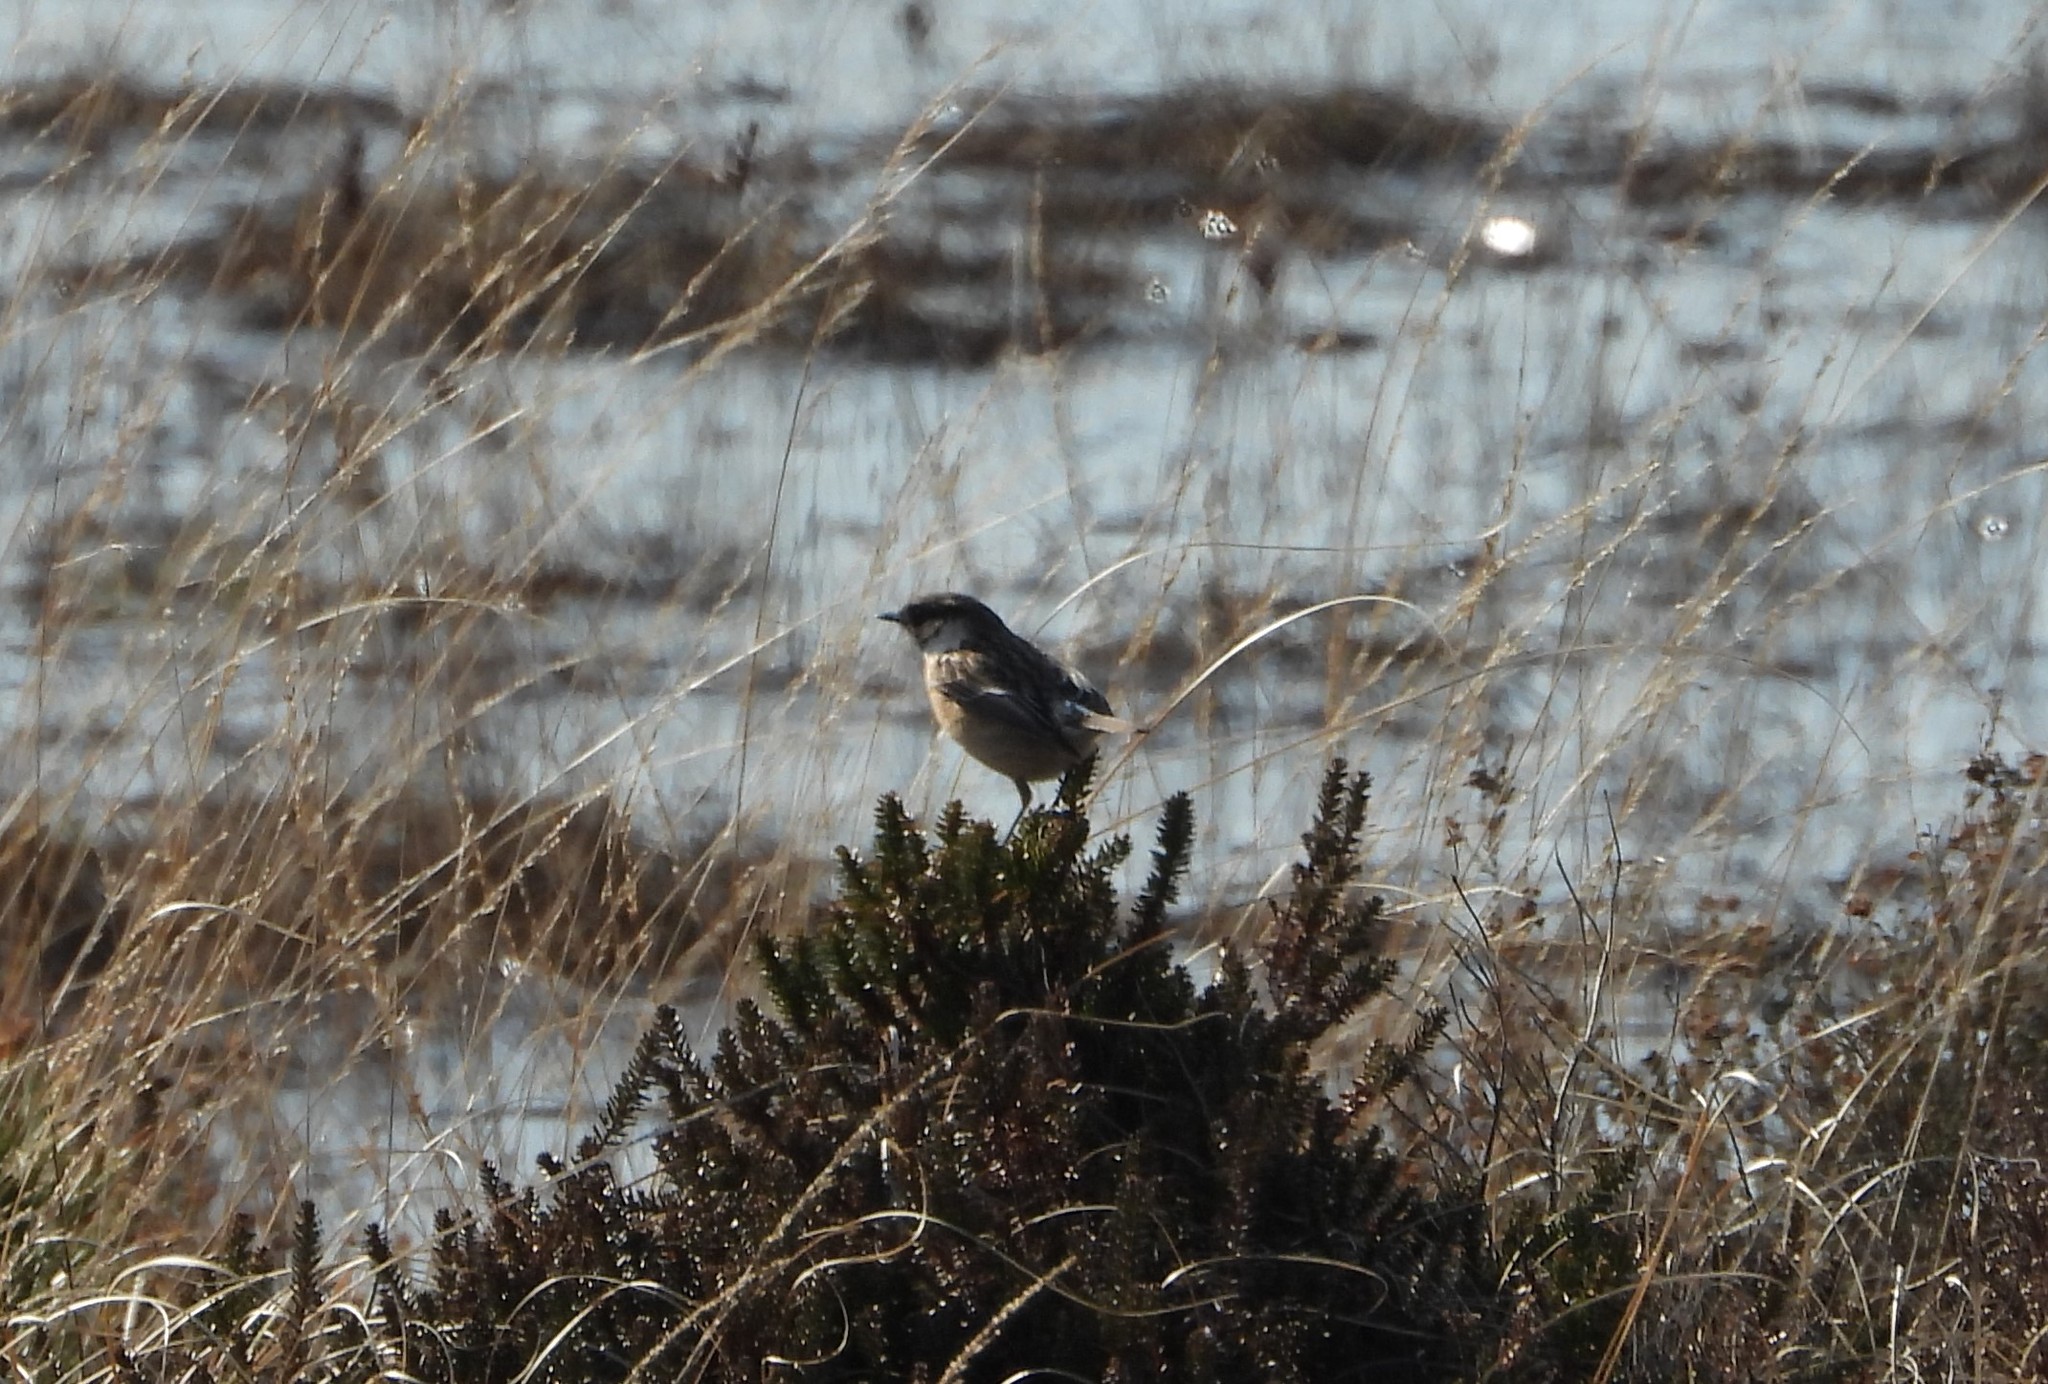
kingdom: Animalia
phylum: Chordata
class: Aves
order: Passeriformes
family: Muscicapidae
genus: Saxicola
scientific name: Saxicola rubicola
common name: European stonechat
